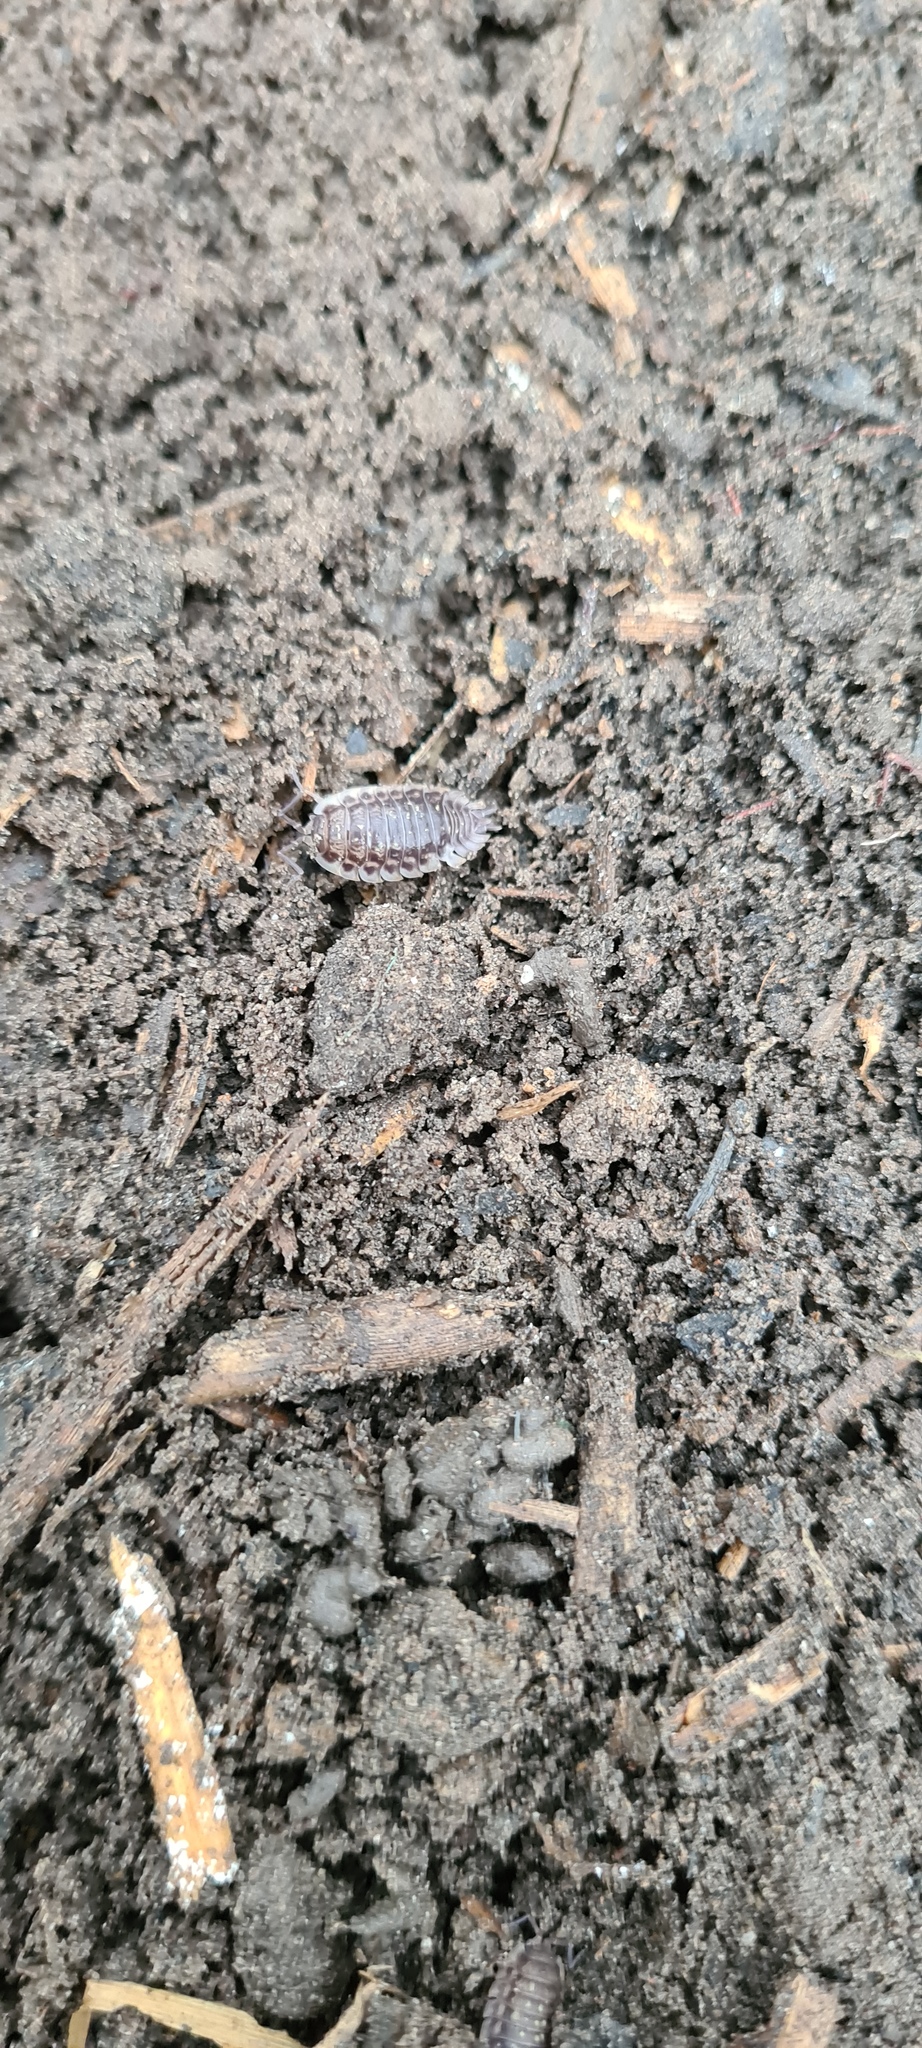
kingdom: Animalia
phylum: Arthropoda
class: Malacostraca
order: Isopoda
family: Oniscidae
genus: Oniscus
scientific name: Oniscus asellus
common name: Common shiny woodlouse
